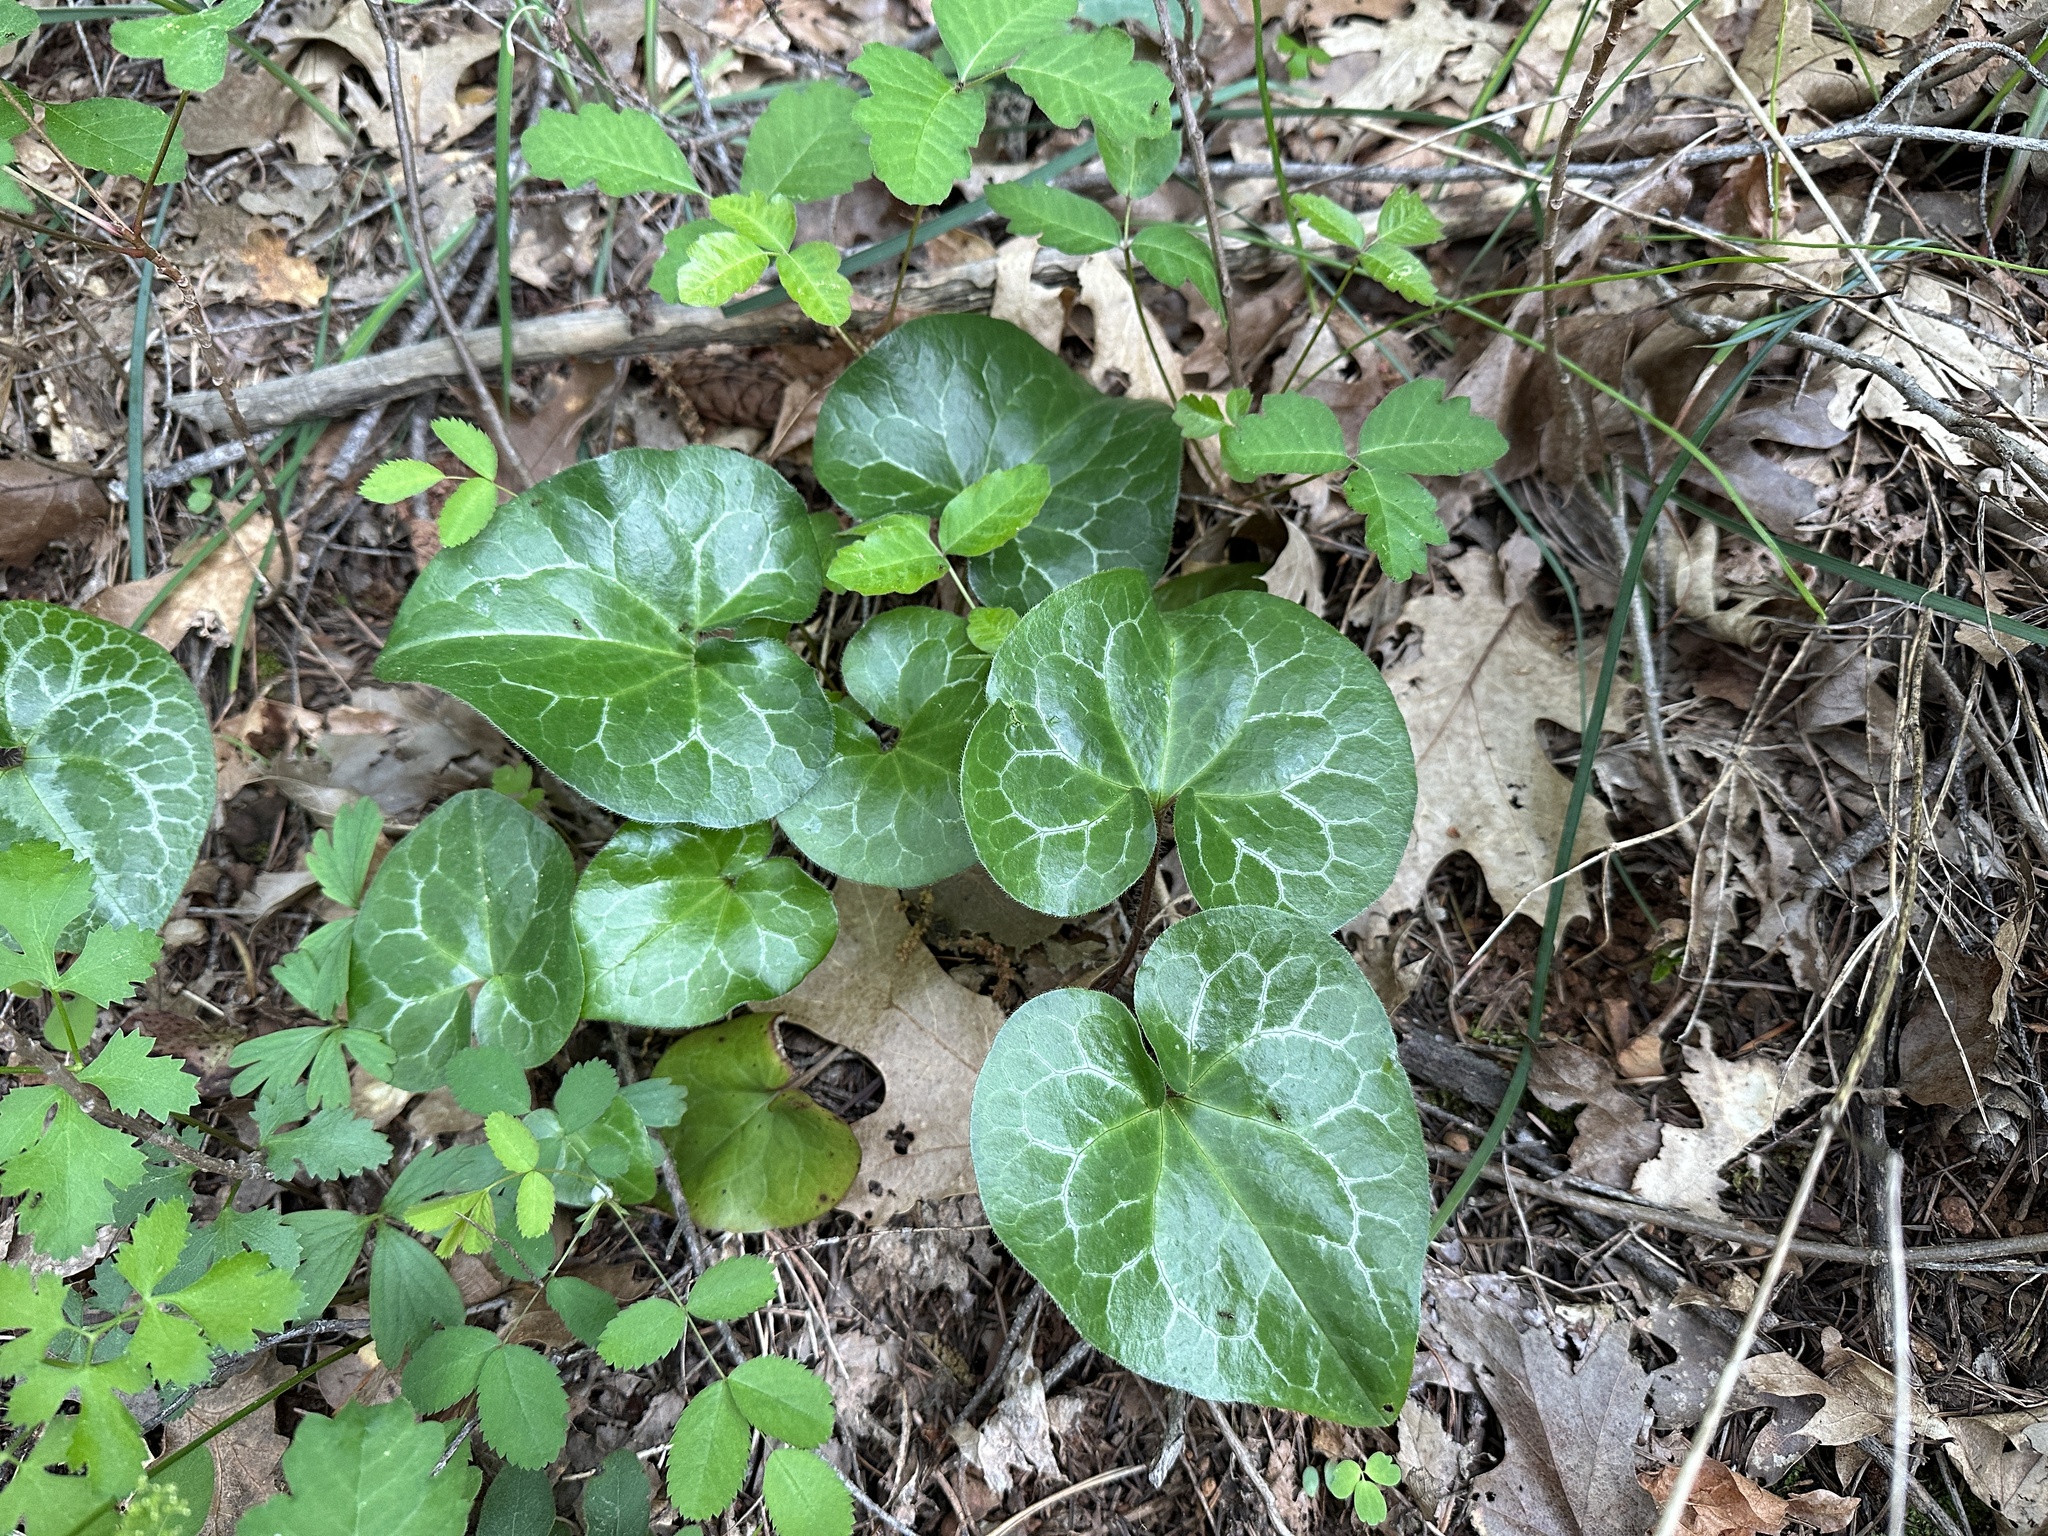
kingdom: Plantae
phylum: Tracheophyta
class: Magnoliopsida
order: Piperales
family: Aristolochiaceae
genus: Asarum
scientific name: Asarum hartwegii
